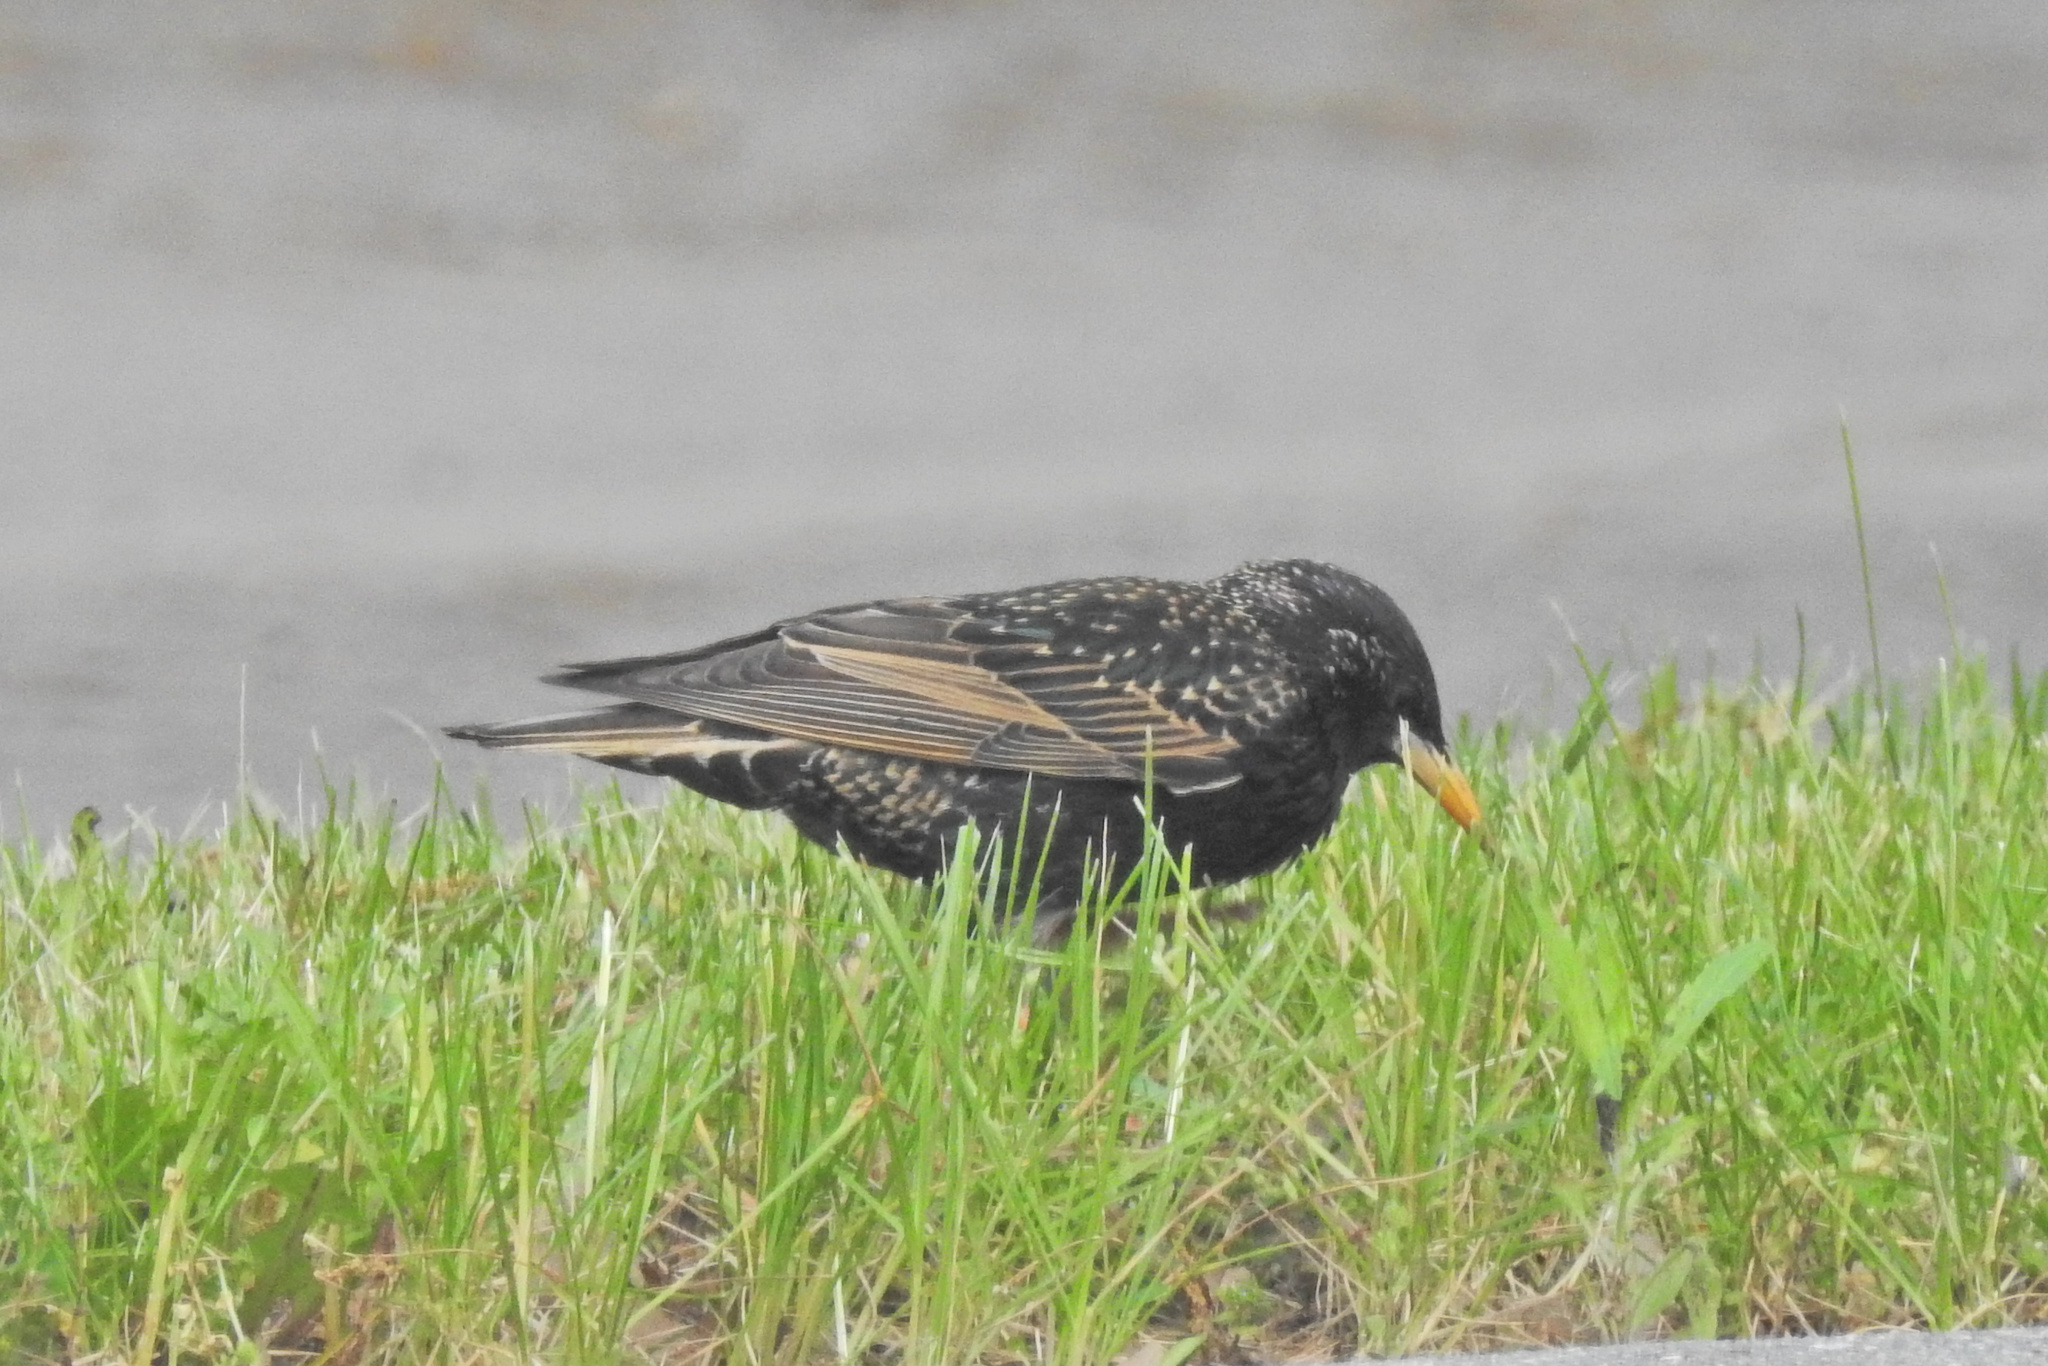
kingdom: Animalia
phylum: Chordata
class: Aves
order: Passeriformes
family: Sturnidae
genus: Sturnus
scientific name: Sturnus vulgaris
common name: Common starling
